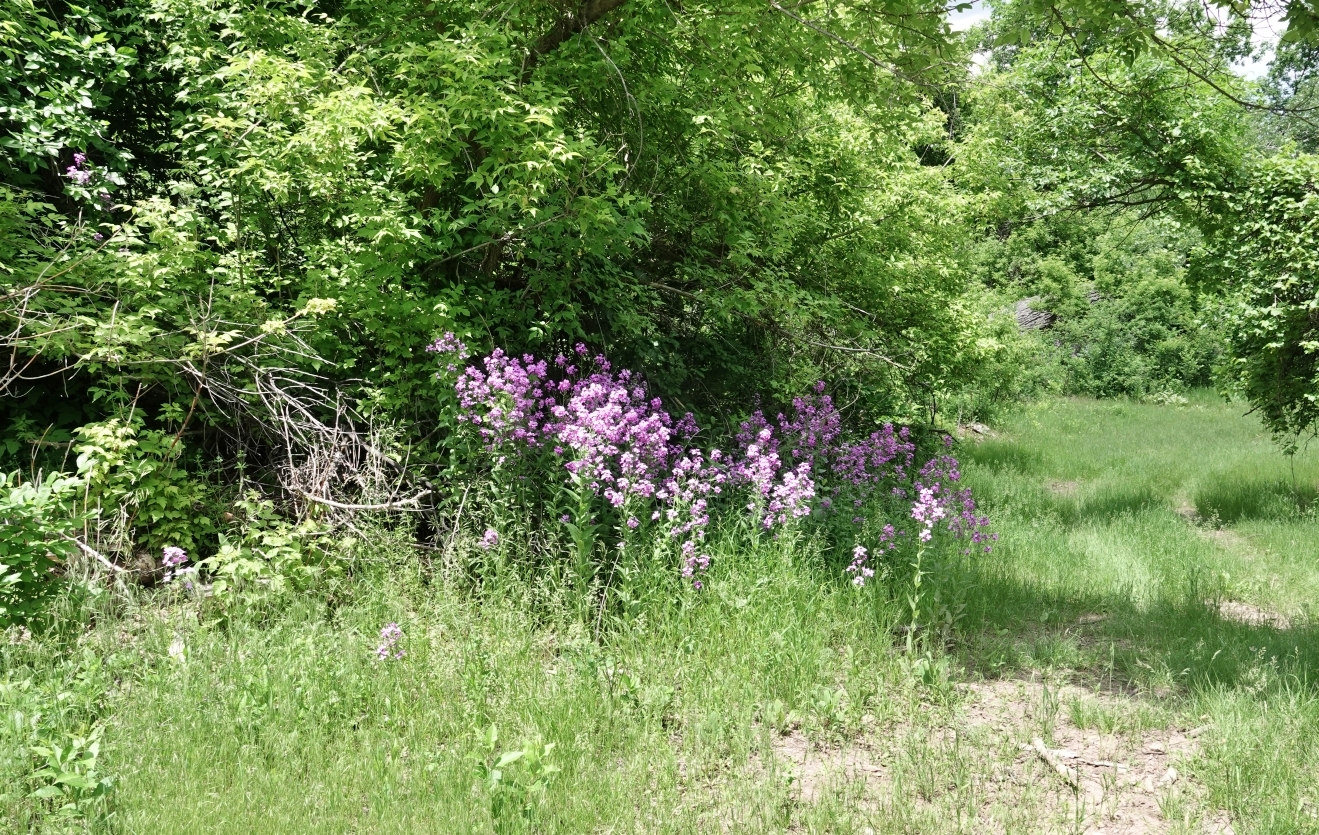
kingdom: Plantae
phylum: Tracheophyta
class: Magnoliopsida
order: Brassicales
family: Brassicaceae
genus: Hesperis
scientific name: Hesperis matronalis
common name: Dame's-violet
